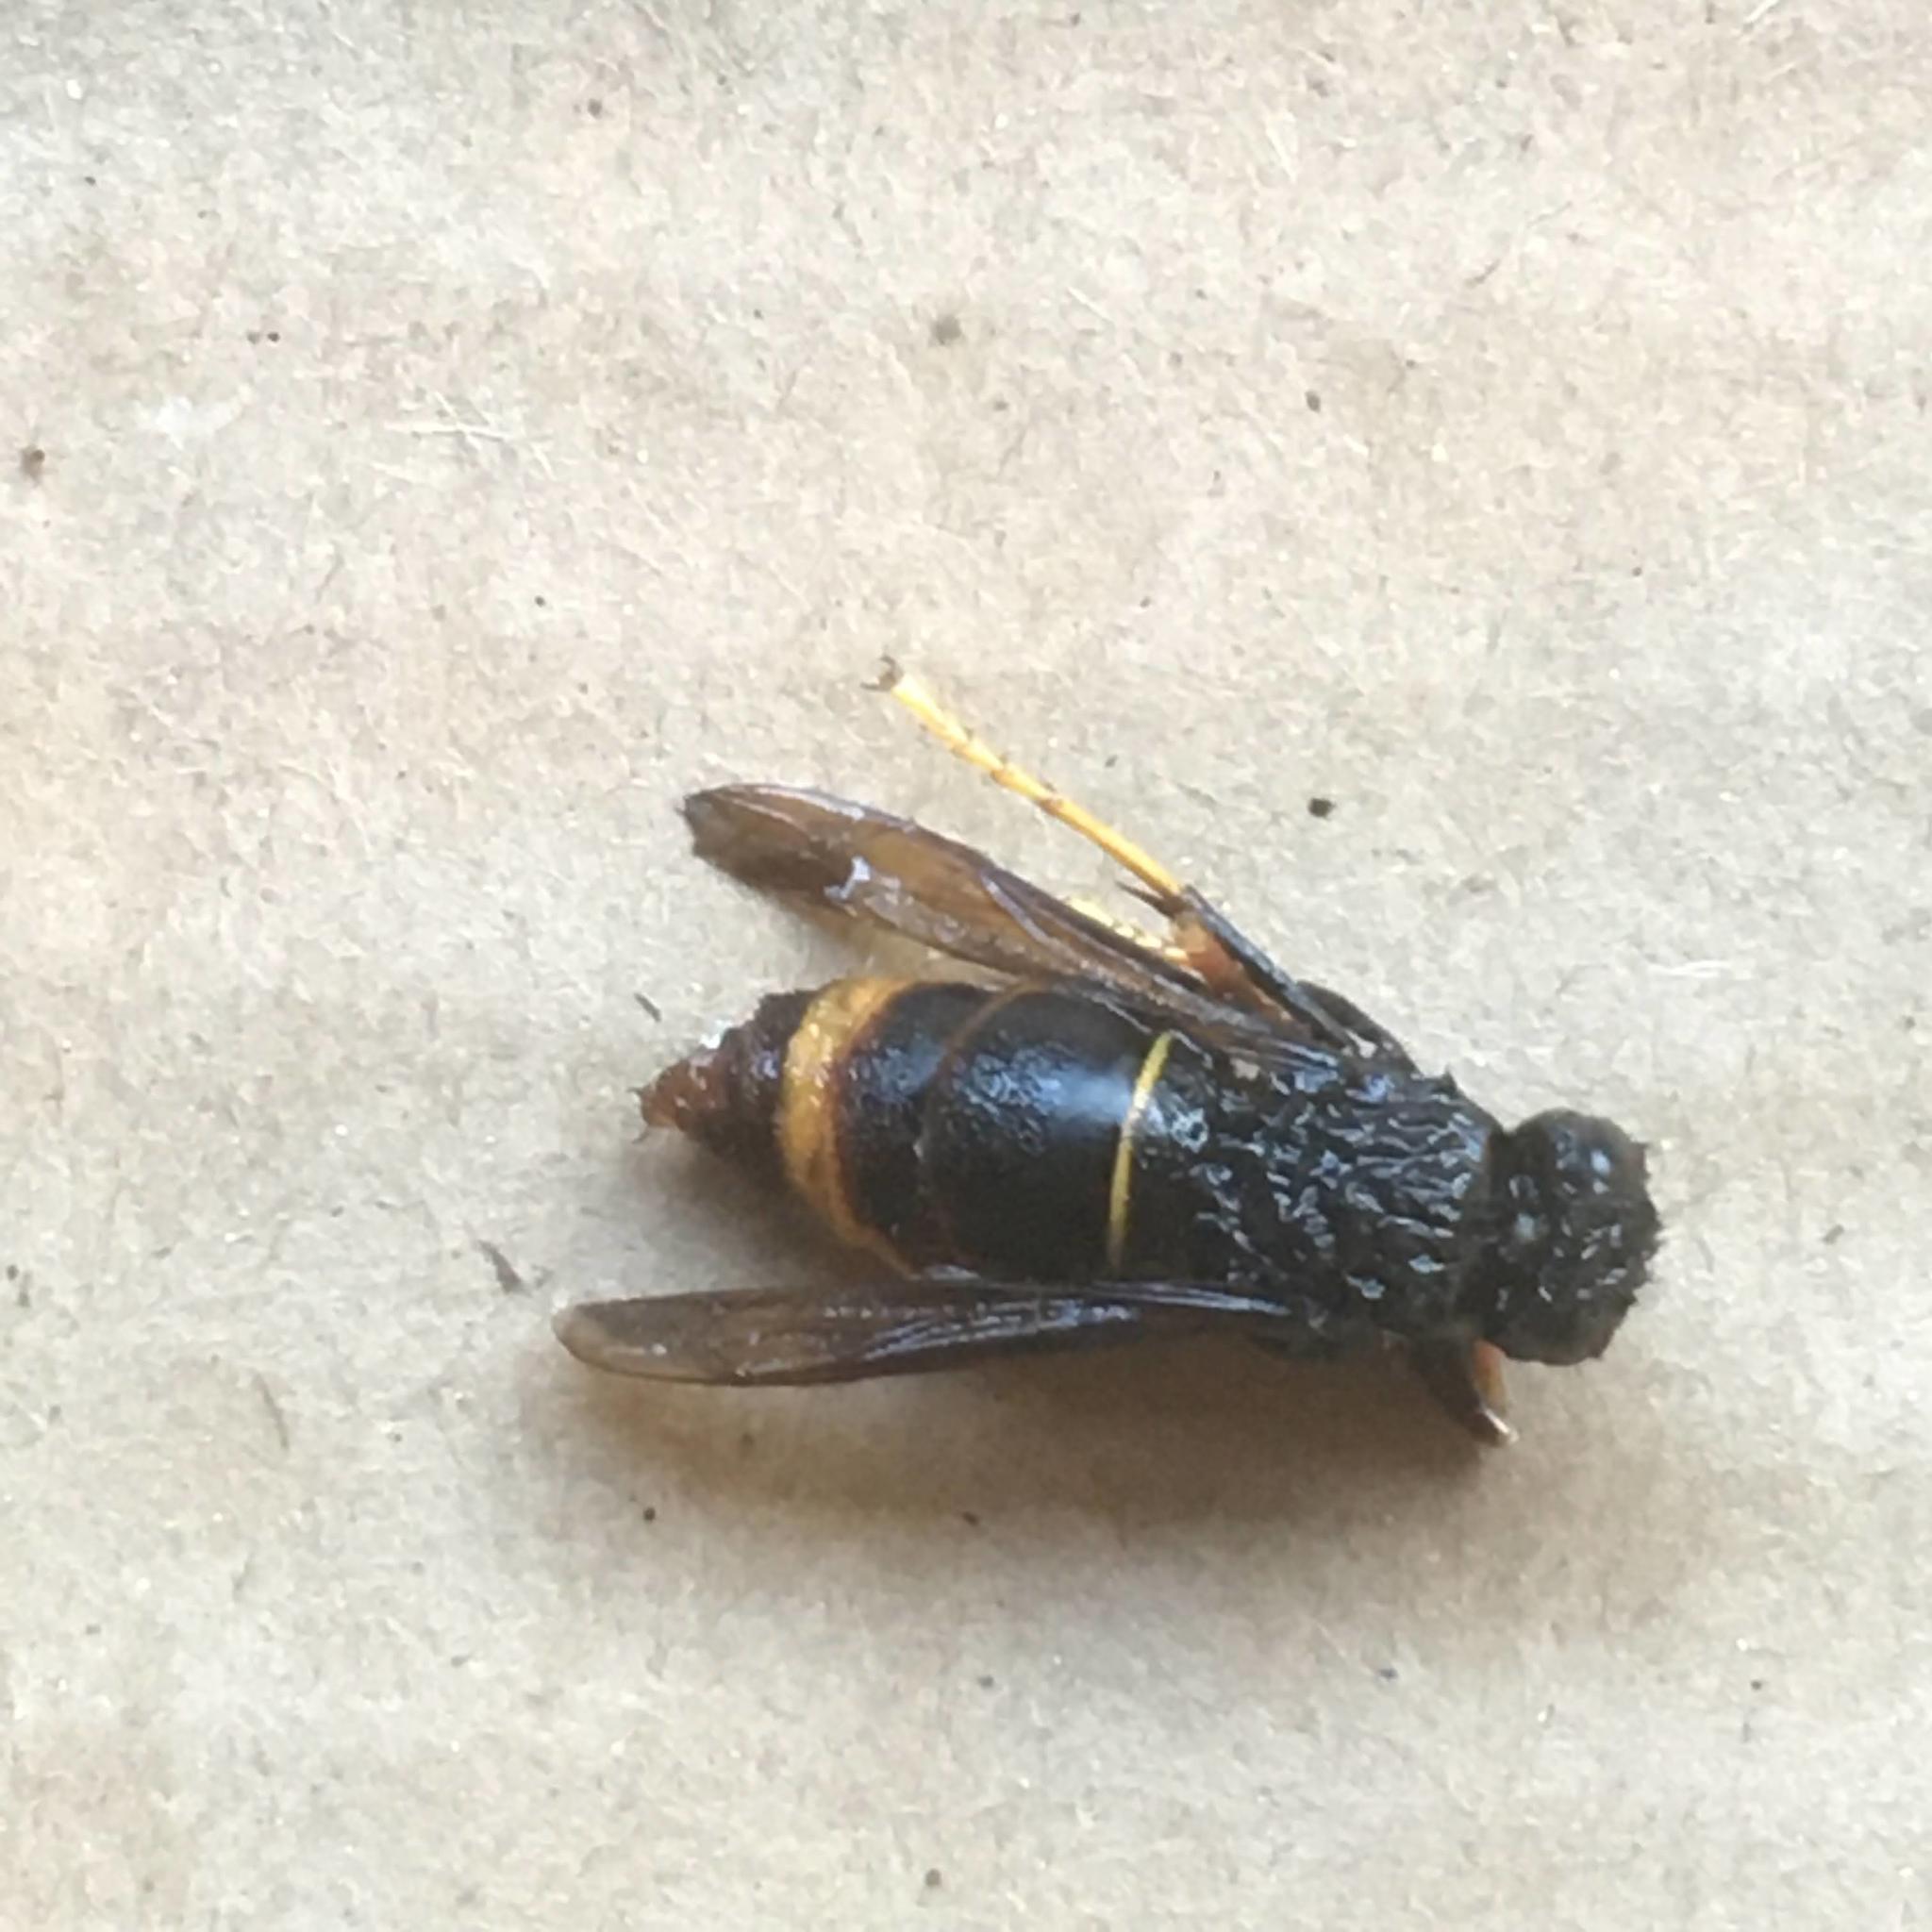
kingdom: Animalia
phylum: Arthropoda
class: Insecta
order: Hymenoptera
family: Vespidae
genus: Vespa
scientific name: Vespa velutina
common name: Asian hornet
